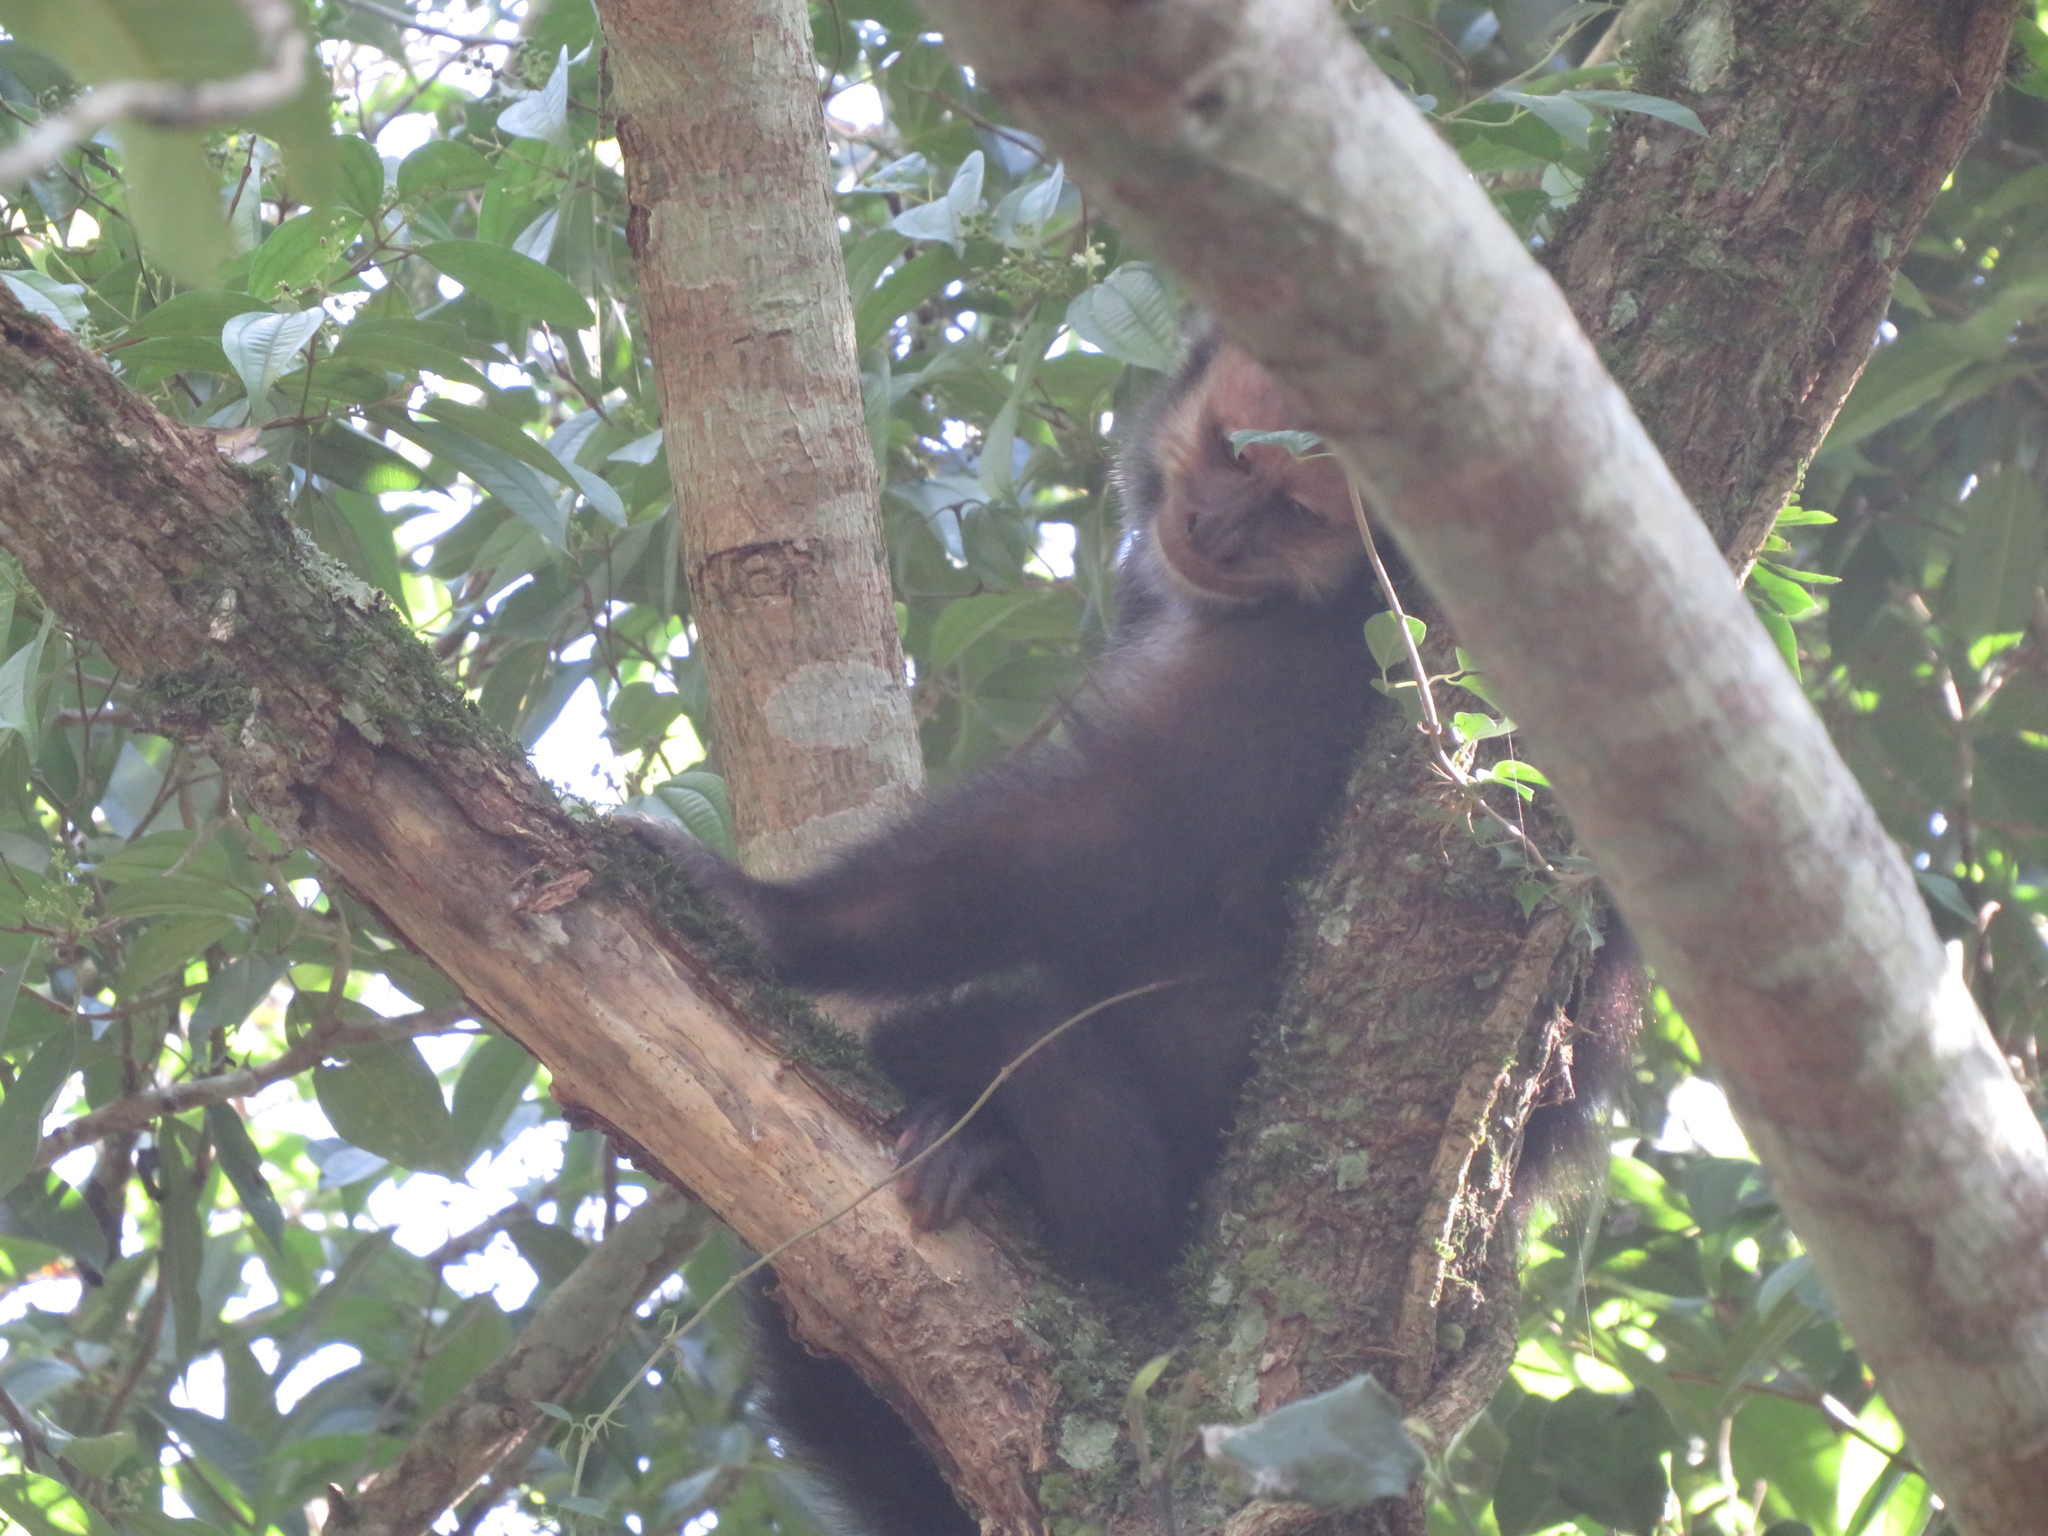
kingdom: Animalia
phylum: Chordata
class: Mammalia
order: Primates
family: Cebidae
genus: Sapajus
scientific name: Sapajus nigritus
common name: Black capuchin
